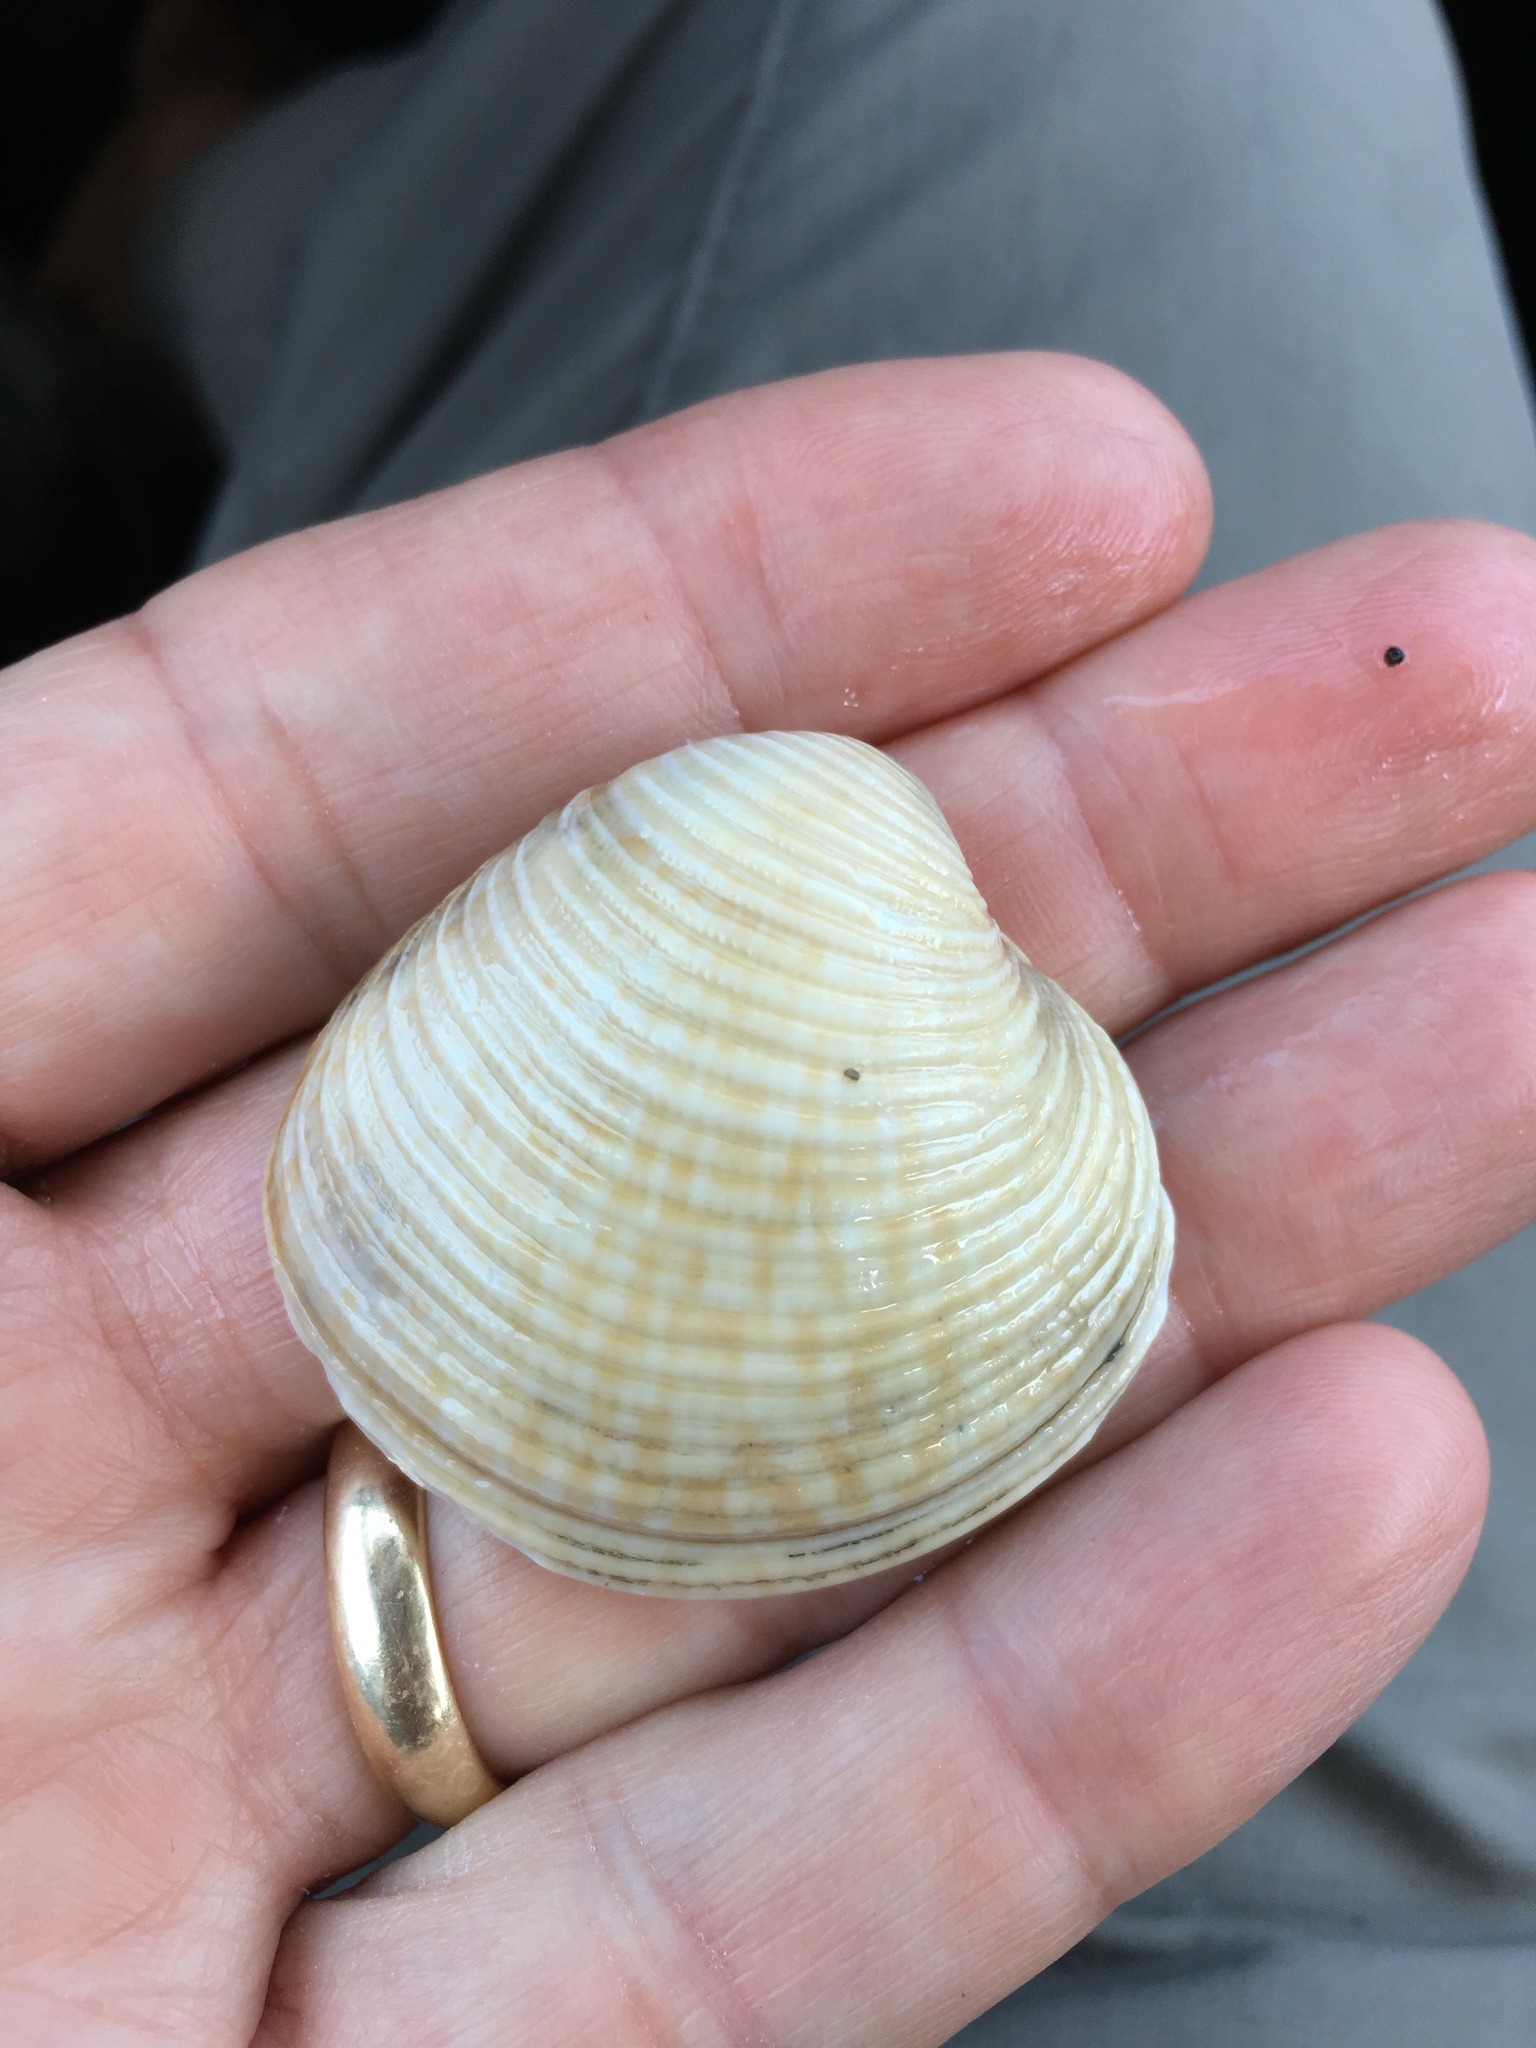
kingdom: Animalia
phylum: Mollusca
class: Bivalvia
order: Venerida
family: Veneridae
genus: Chionopsis
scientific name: Chionopsis intapurpurea
